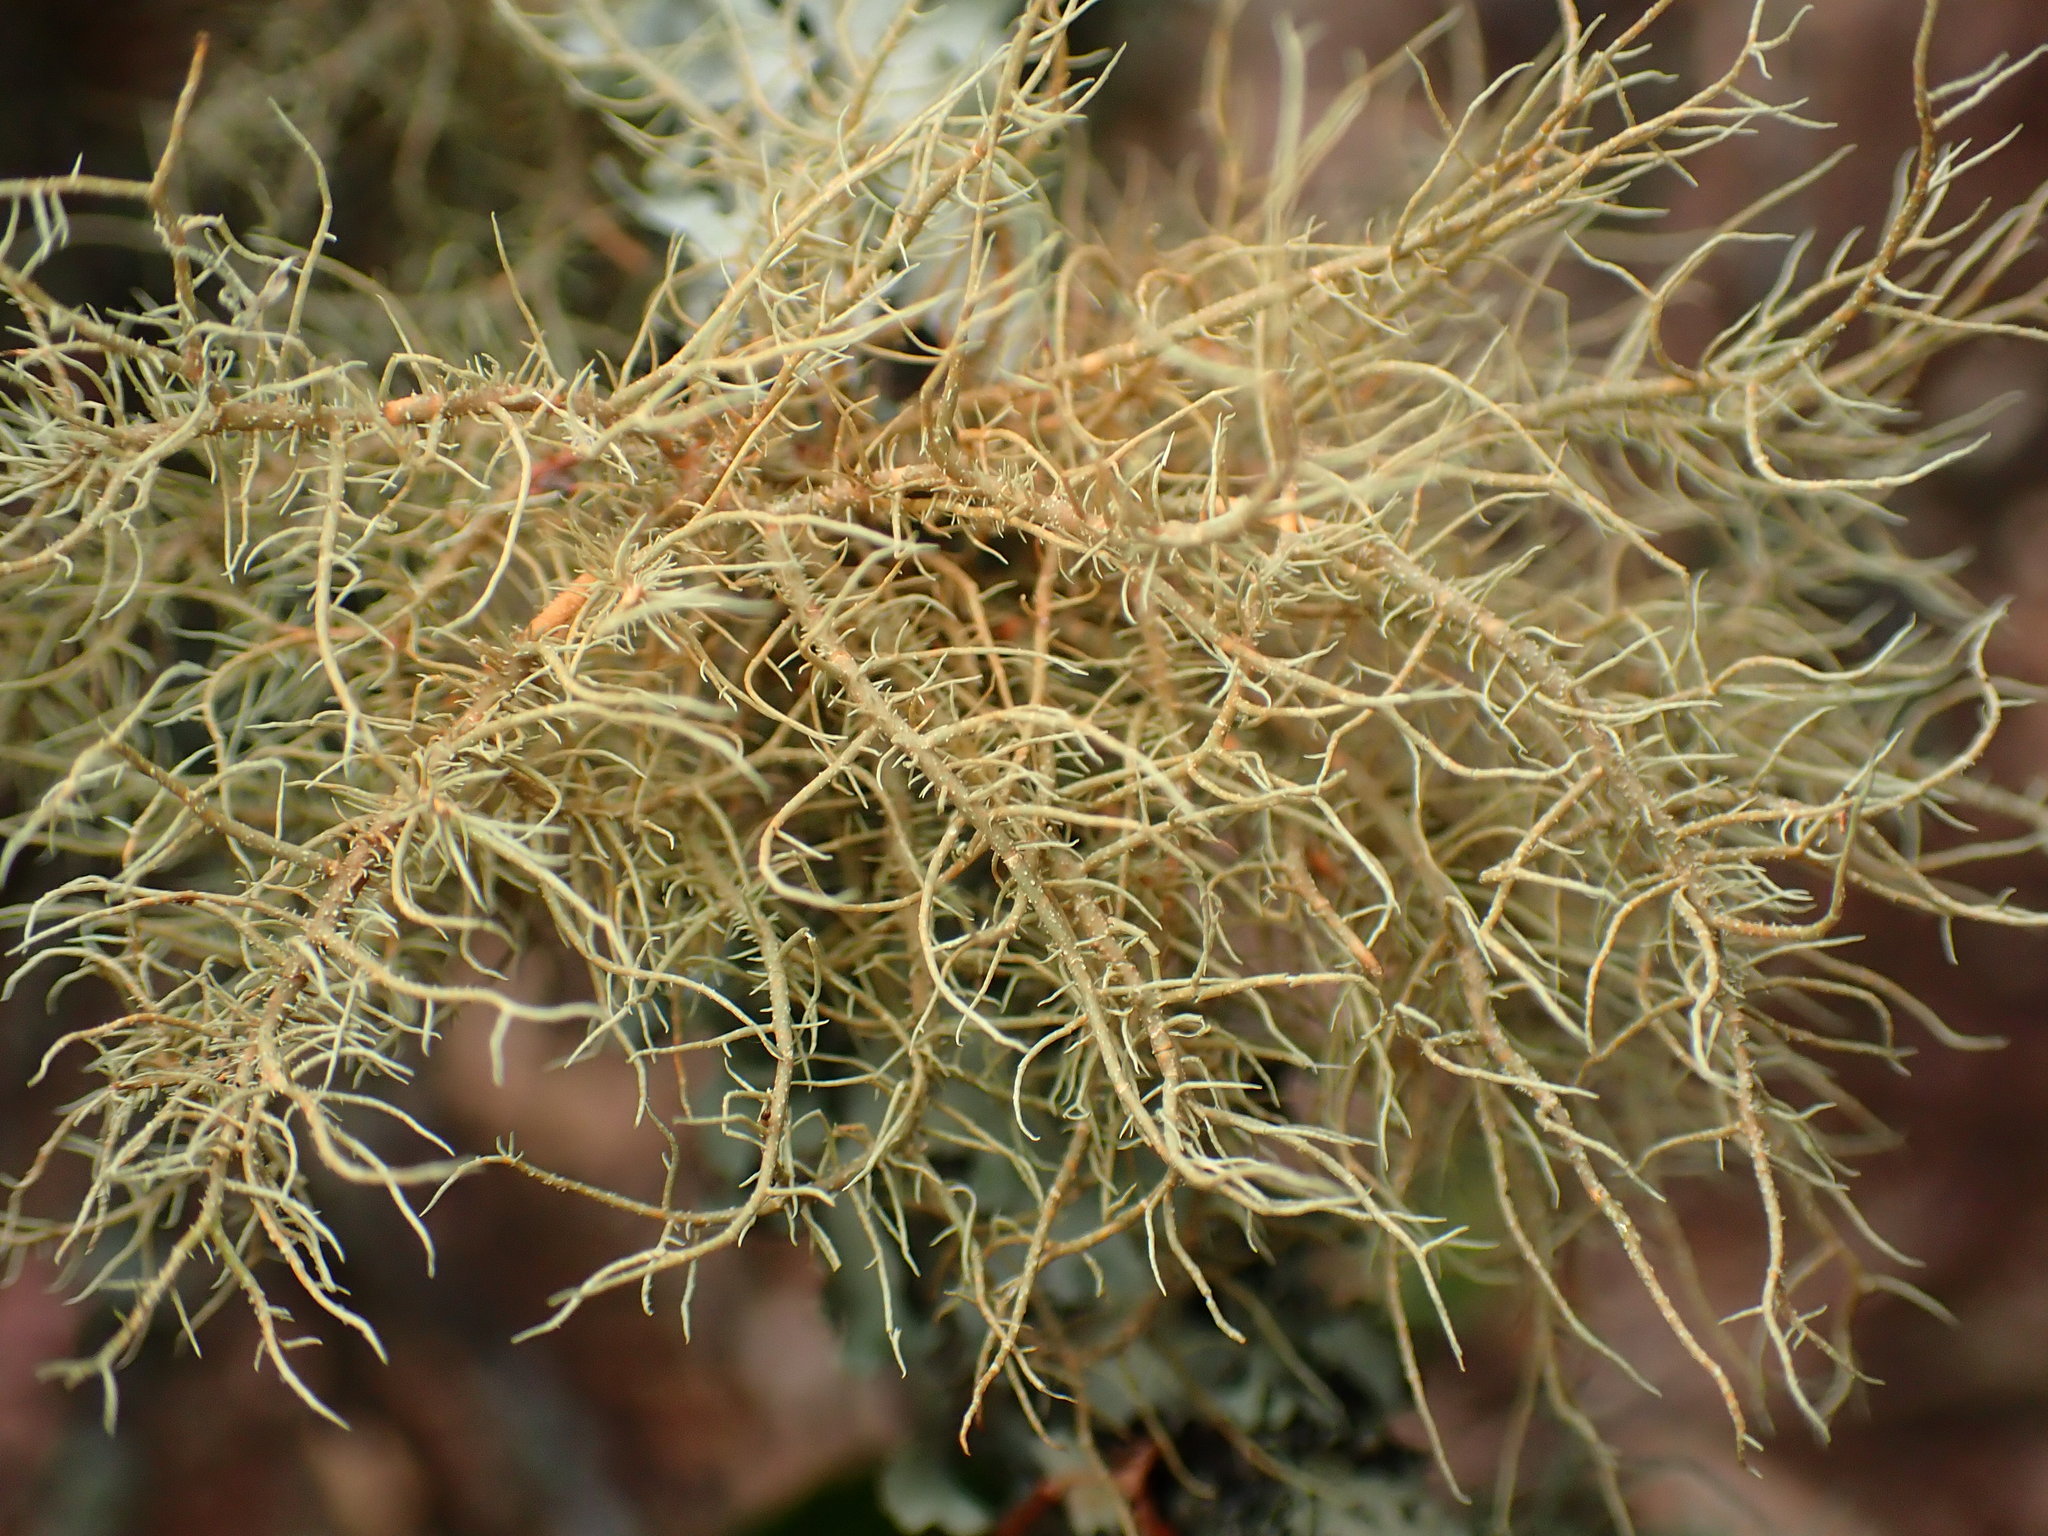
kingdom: Fungi
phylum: Ascomycota
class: Lecanoromycetes
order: Lecanorales
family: Parmeliaceae
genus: Usnea
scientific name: Usnea rubicunda
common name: Red beard lichen
